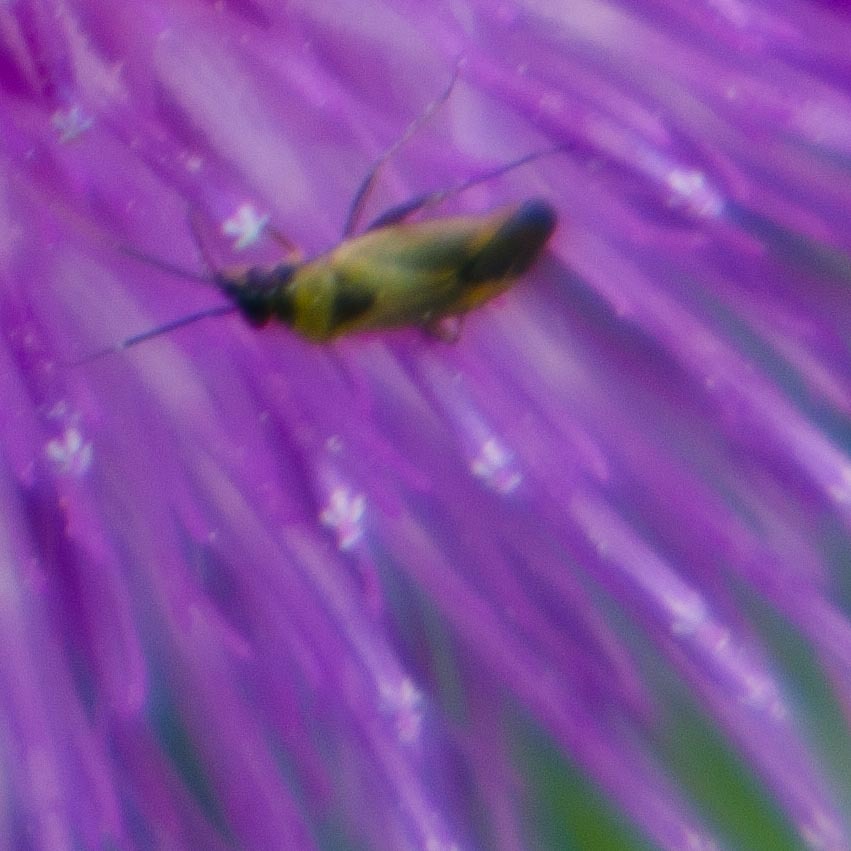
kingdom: Animalia
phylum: Arthropoda
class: Insecta
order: Hemiptera
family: Miridae
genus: Plagiognathus
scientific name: Plagiognathus arbustorum
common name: Plant bug
